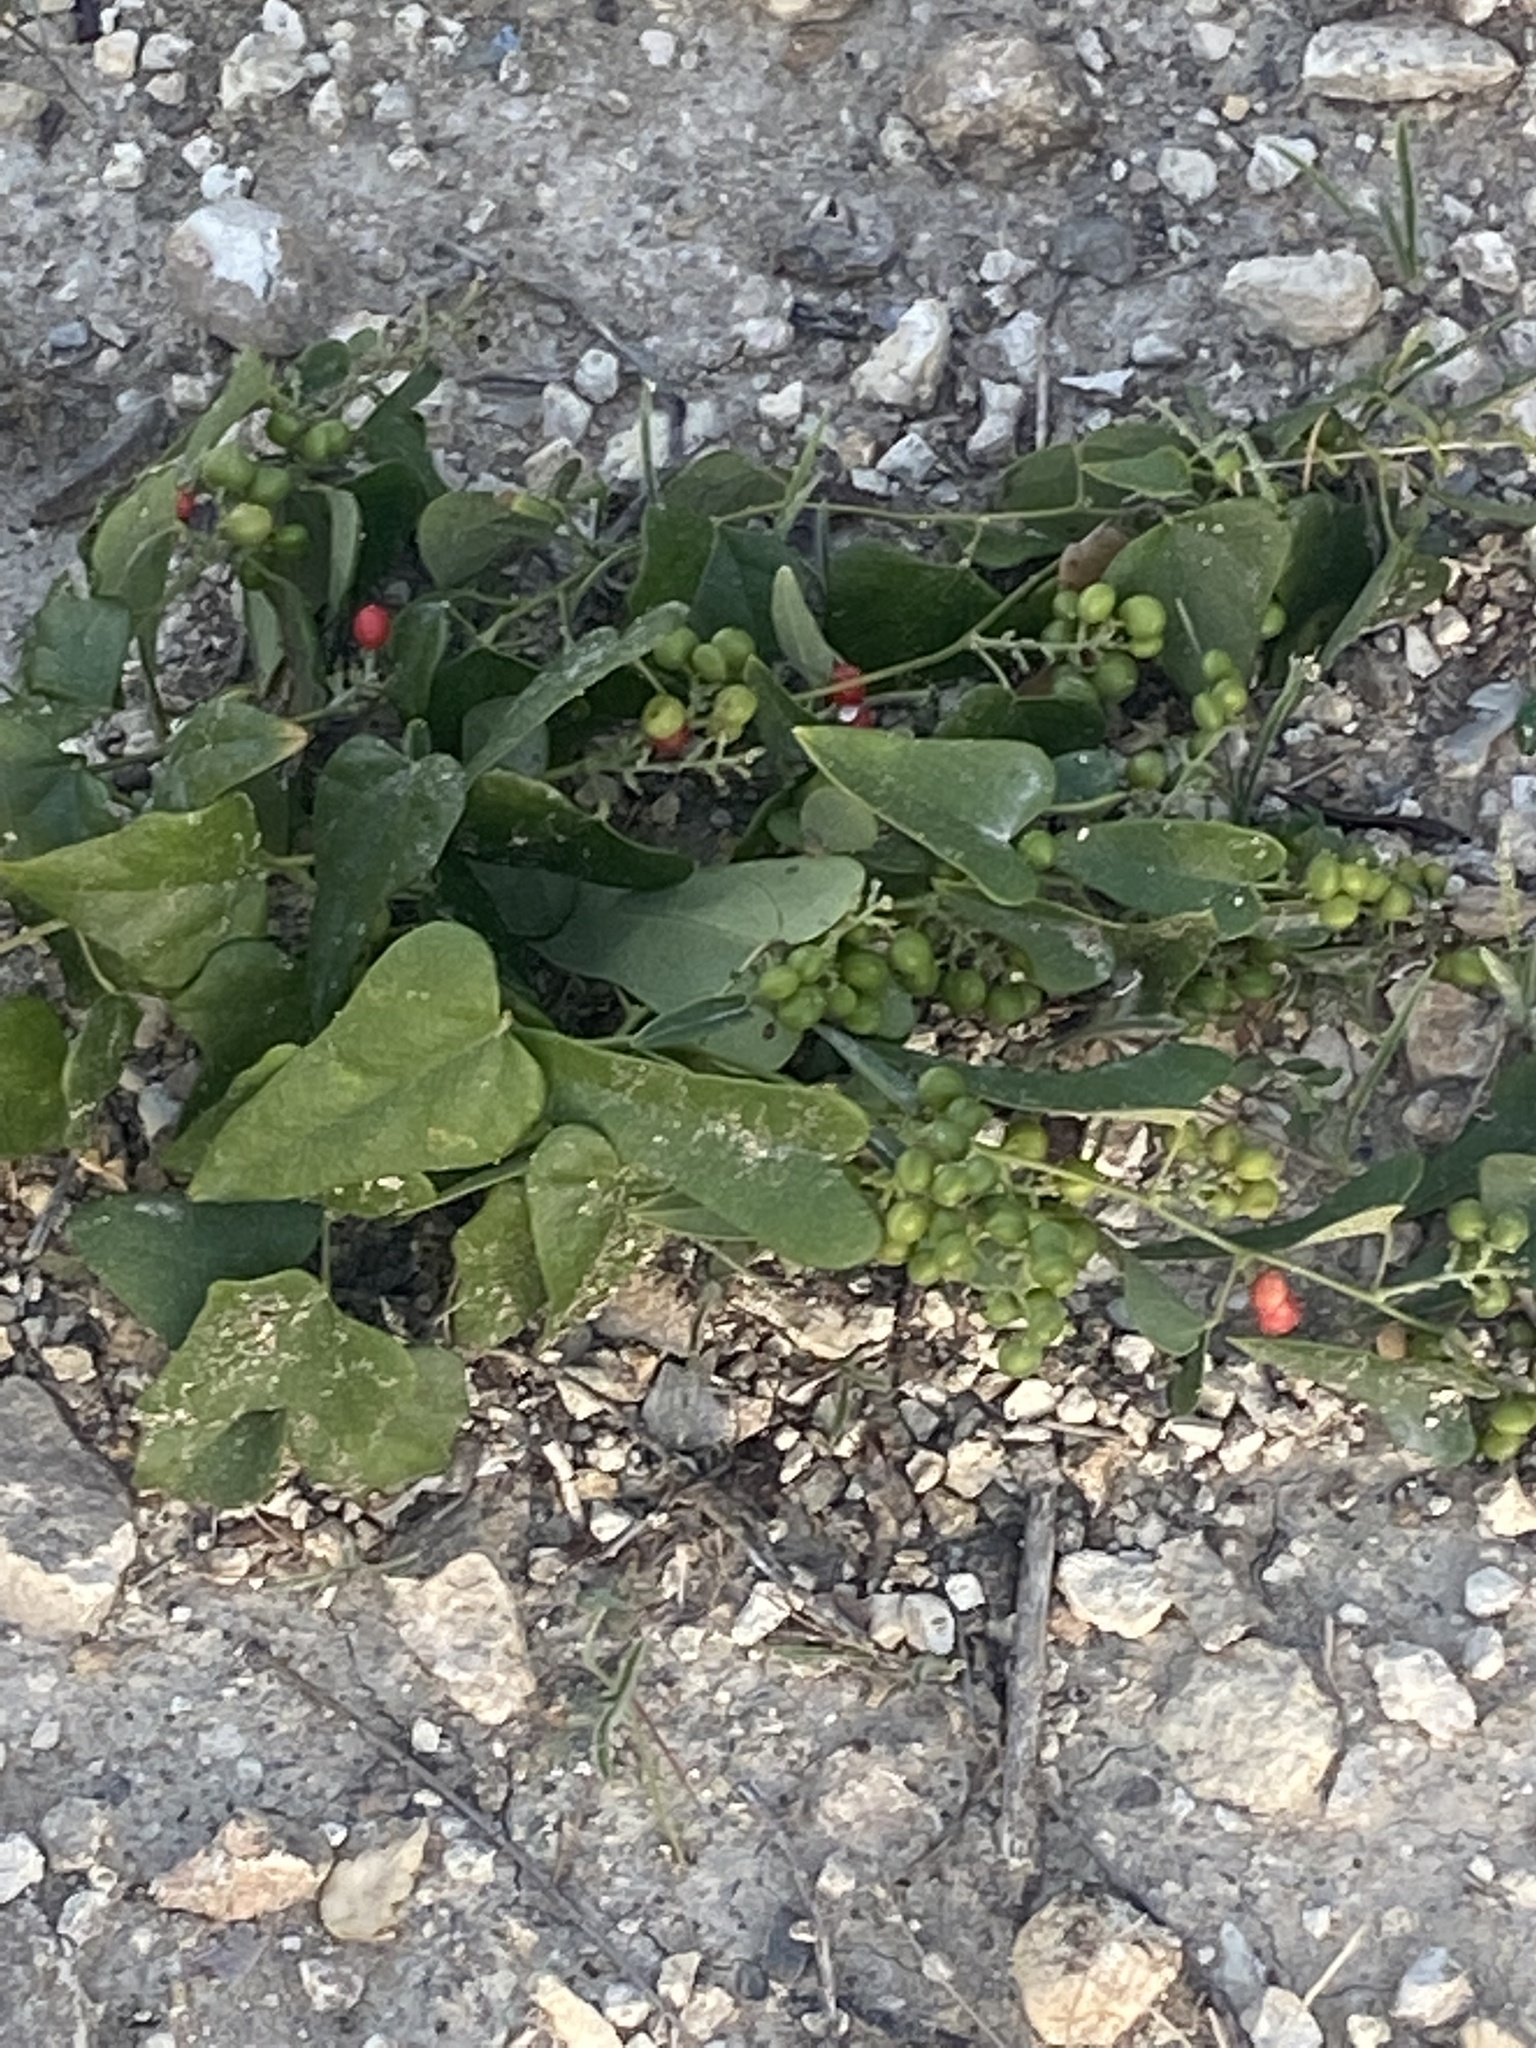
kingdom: Plantae
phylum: Tracheophyta
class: Magnoliopsida
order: Ranunculales
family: Menispermaceae
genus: Cocculus
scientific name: Cocculus carolinus
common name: Carolina moonseed
